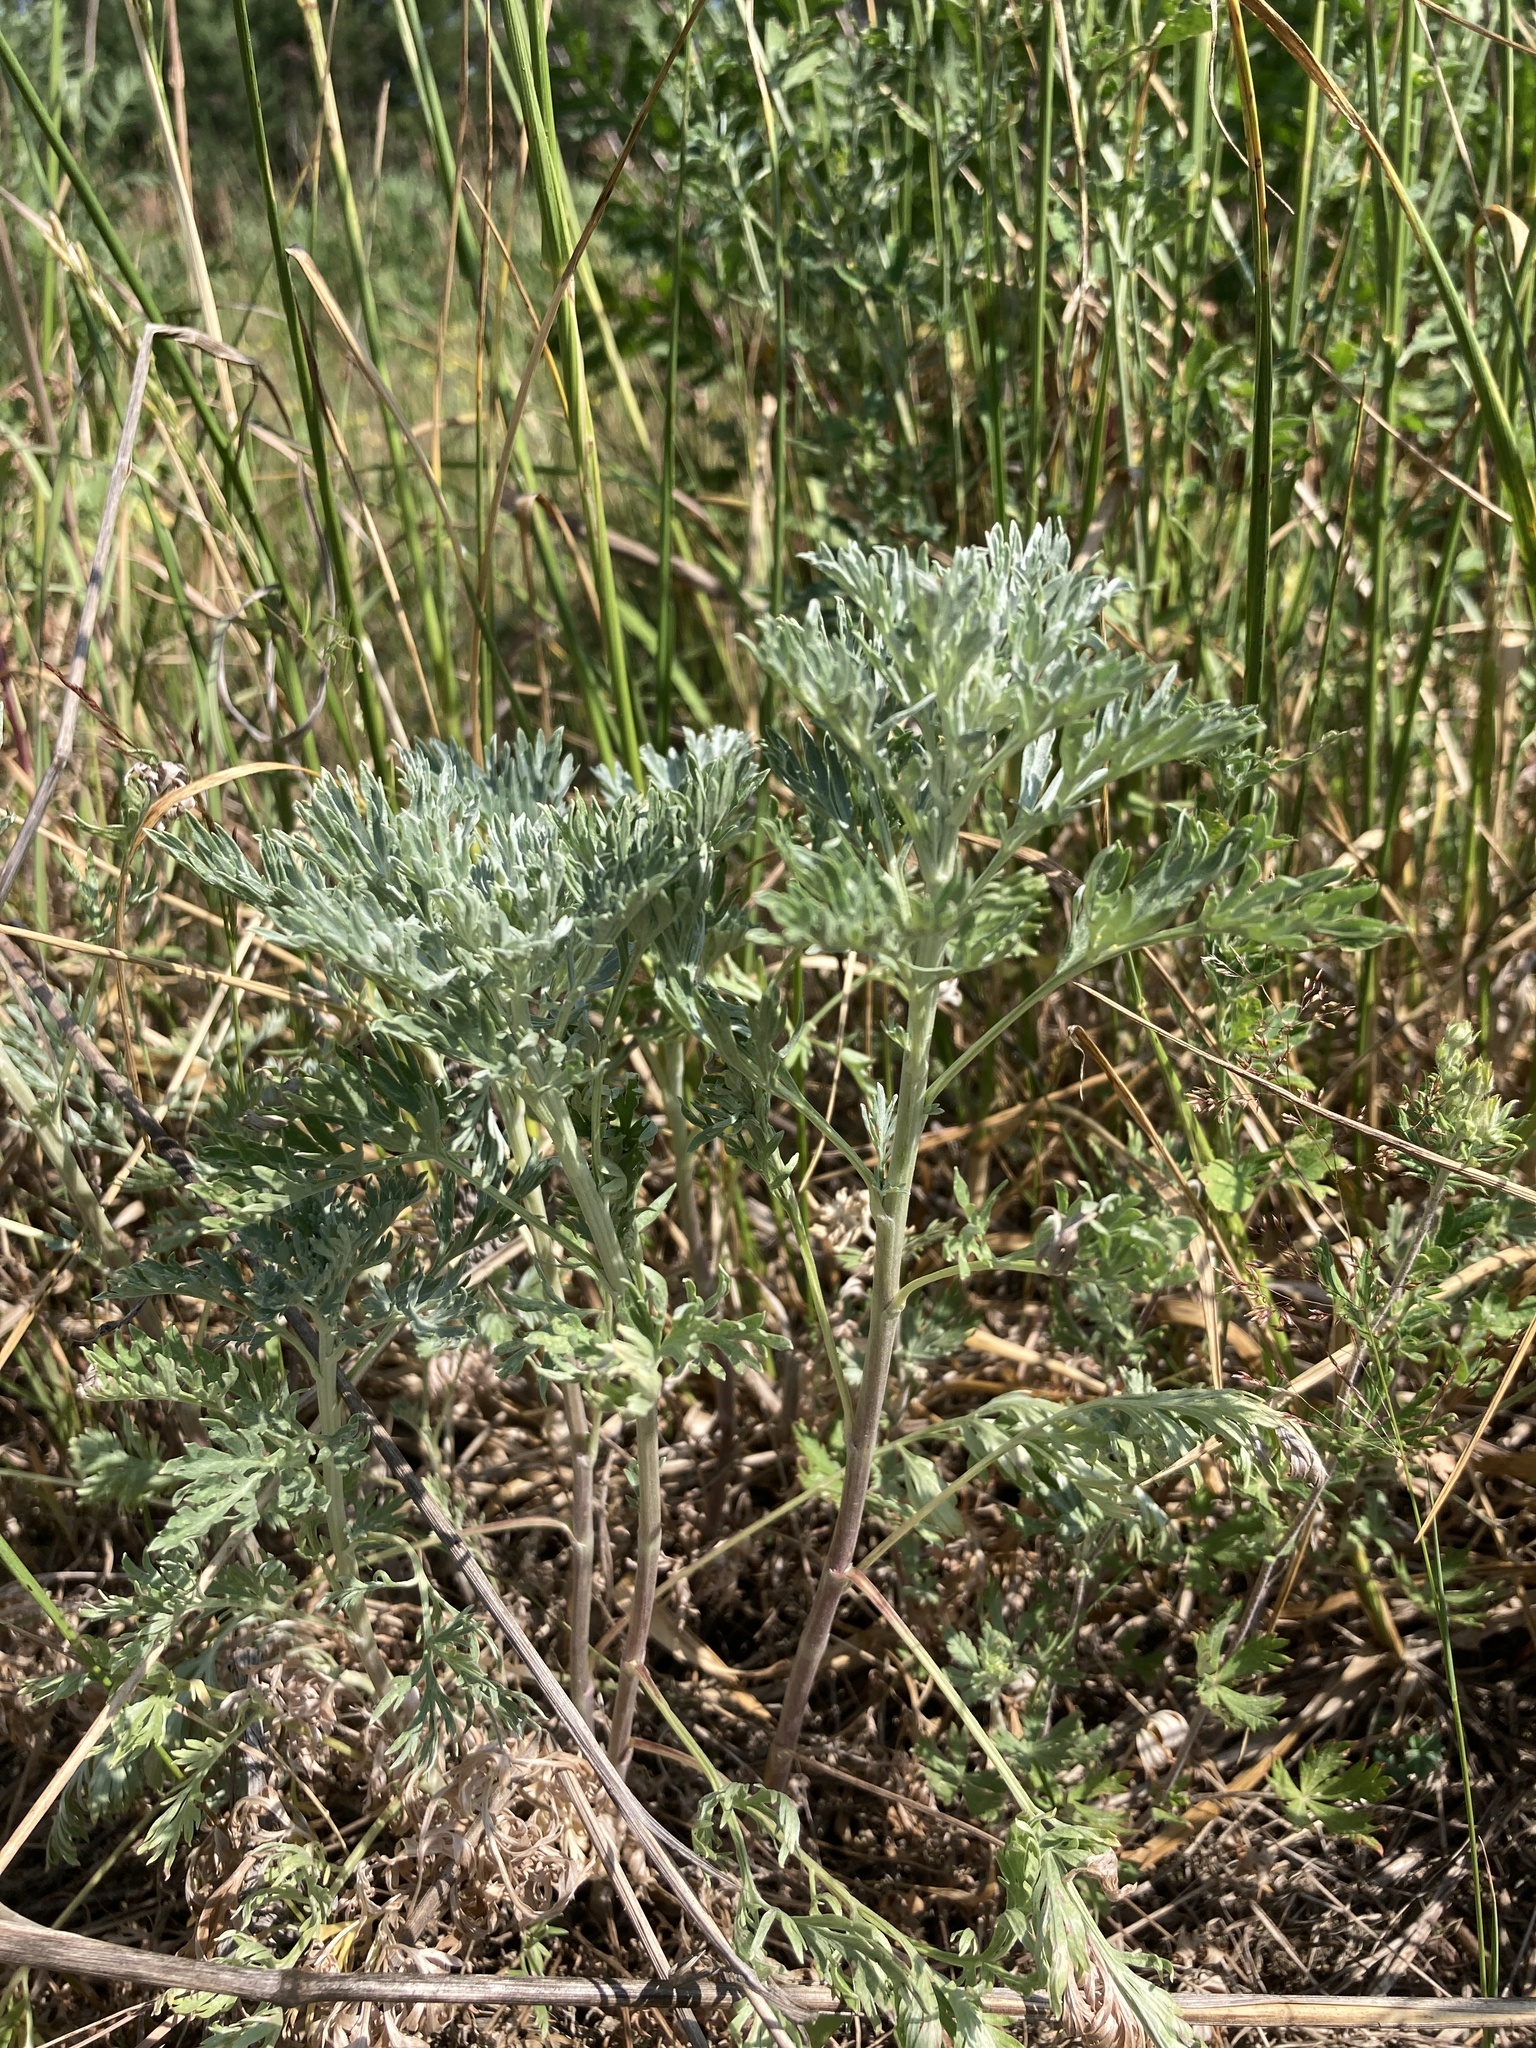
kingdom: Plantae
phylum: Tracheophyta
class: Magnoliopsida
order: Asterales
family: Asteraceae
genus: Artemisia
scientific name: Artemisia absinthium
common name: Wormwood
